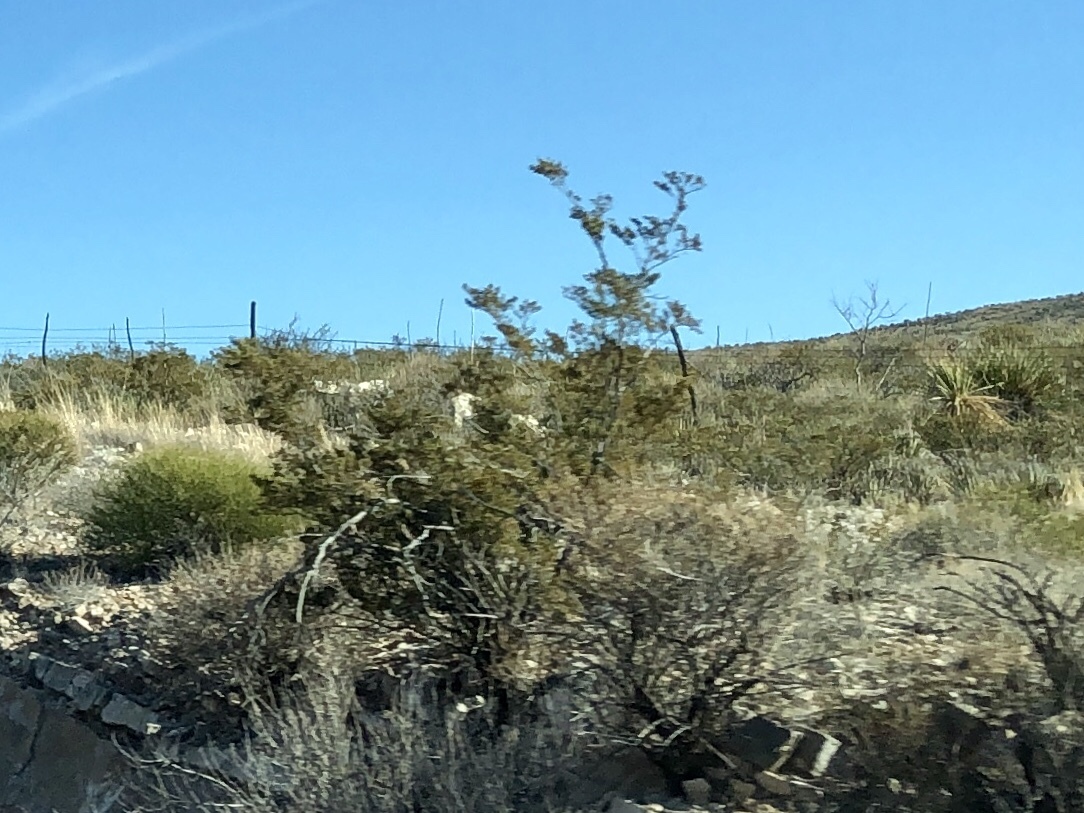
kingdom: Plantae
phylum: Tracheophyta
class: Magnoliopsida
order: Zygophyllales
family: Zygophyllaceae
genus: Larrea
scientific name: Larrea tridentata
